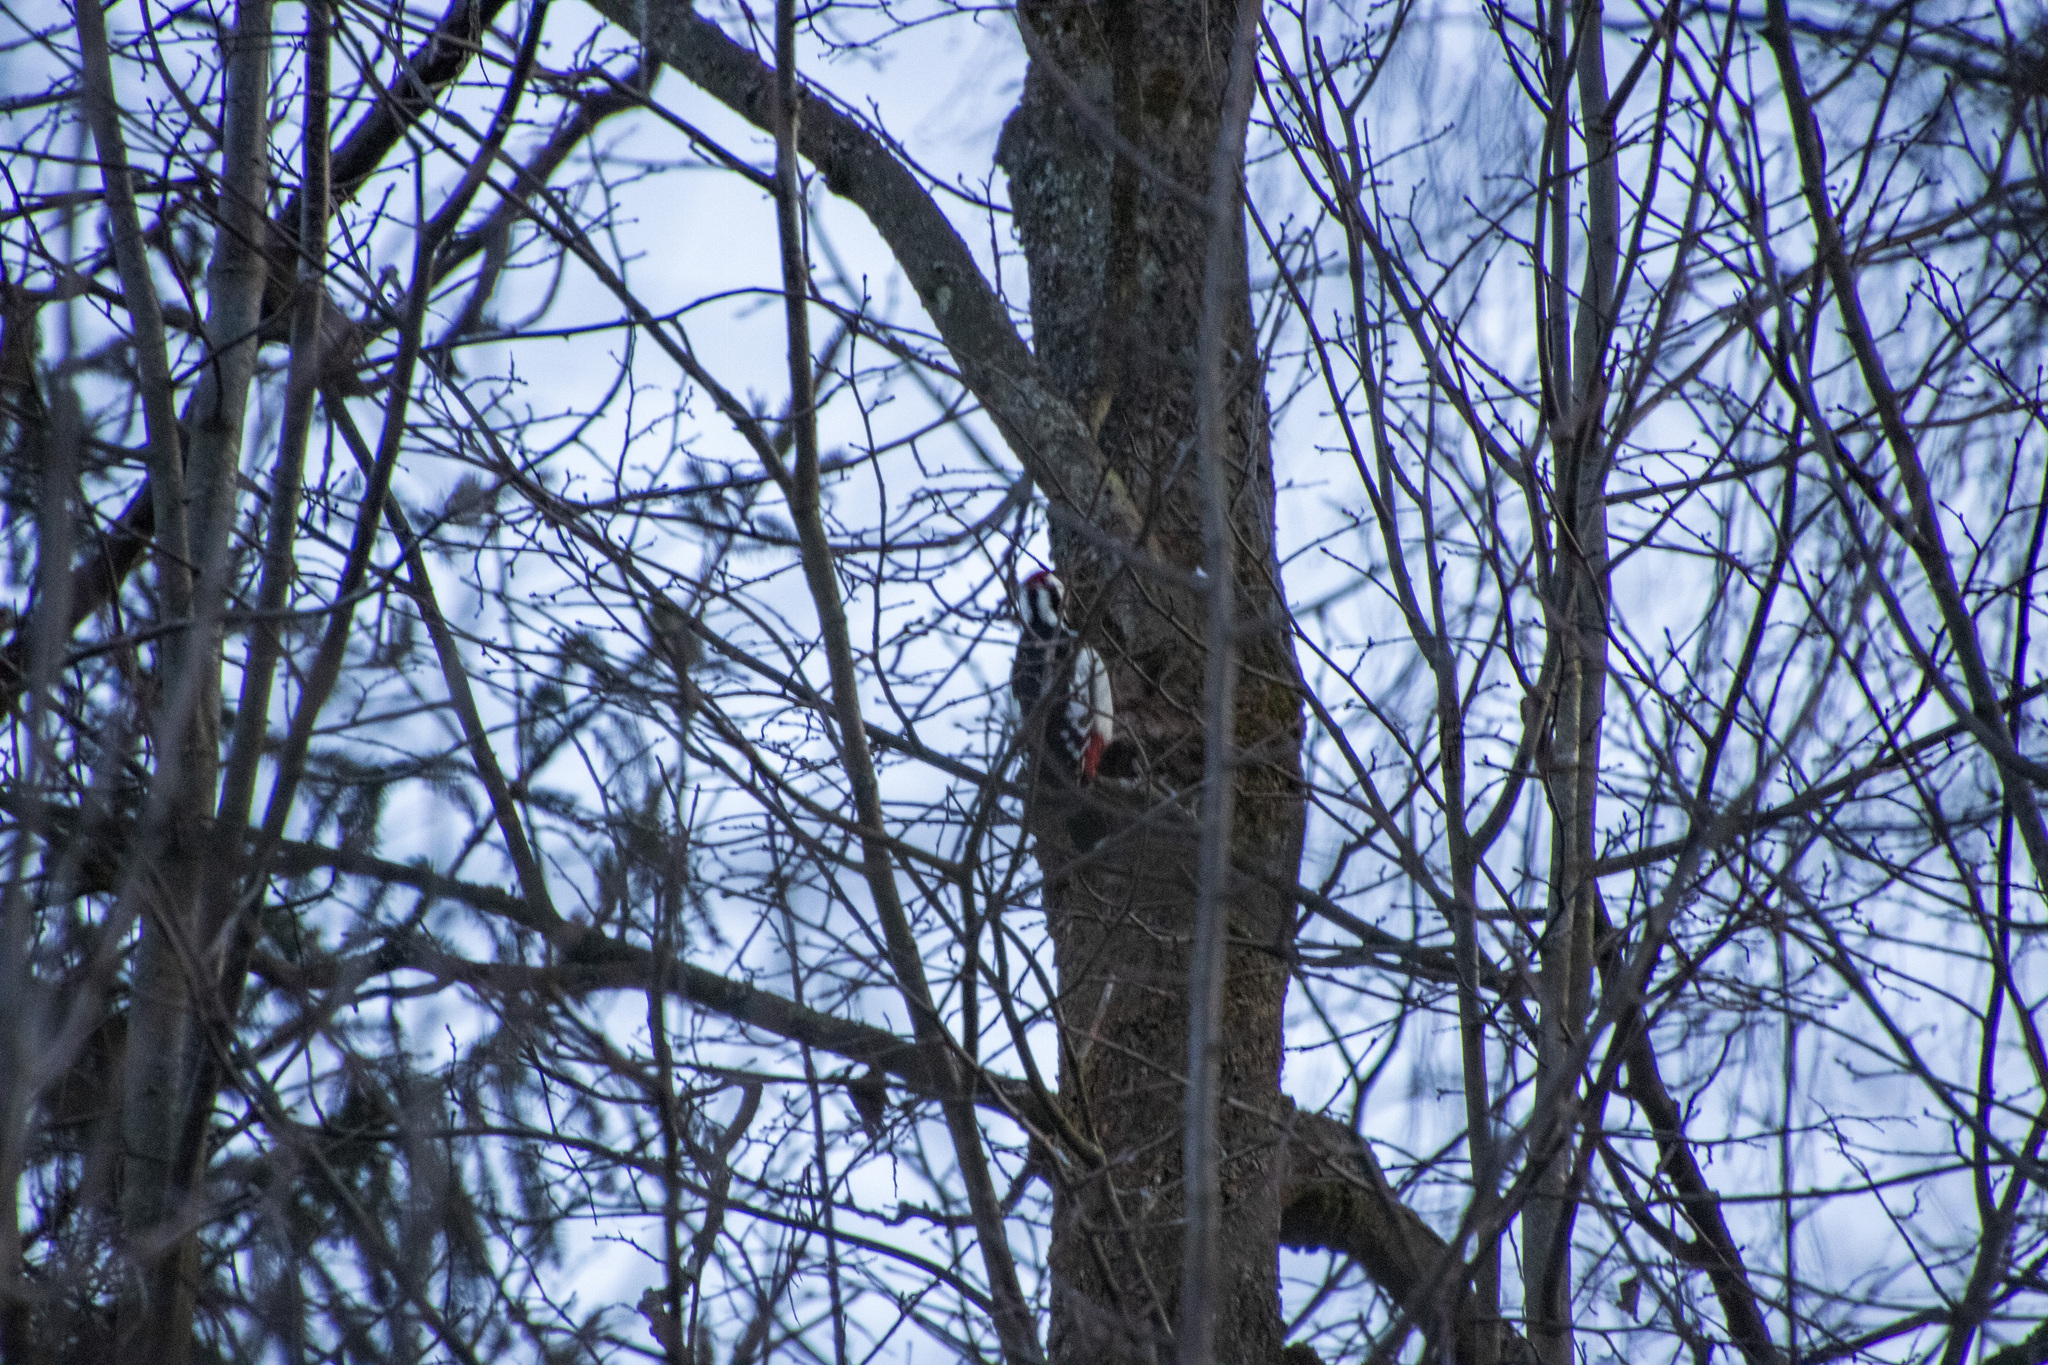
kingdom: Animalia
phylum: Chordata
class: Aves
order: Piciformes
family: Picidae
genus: Dendrocopos
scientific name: Dendrocopos major
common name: Great spotted woodpecker
